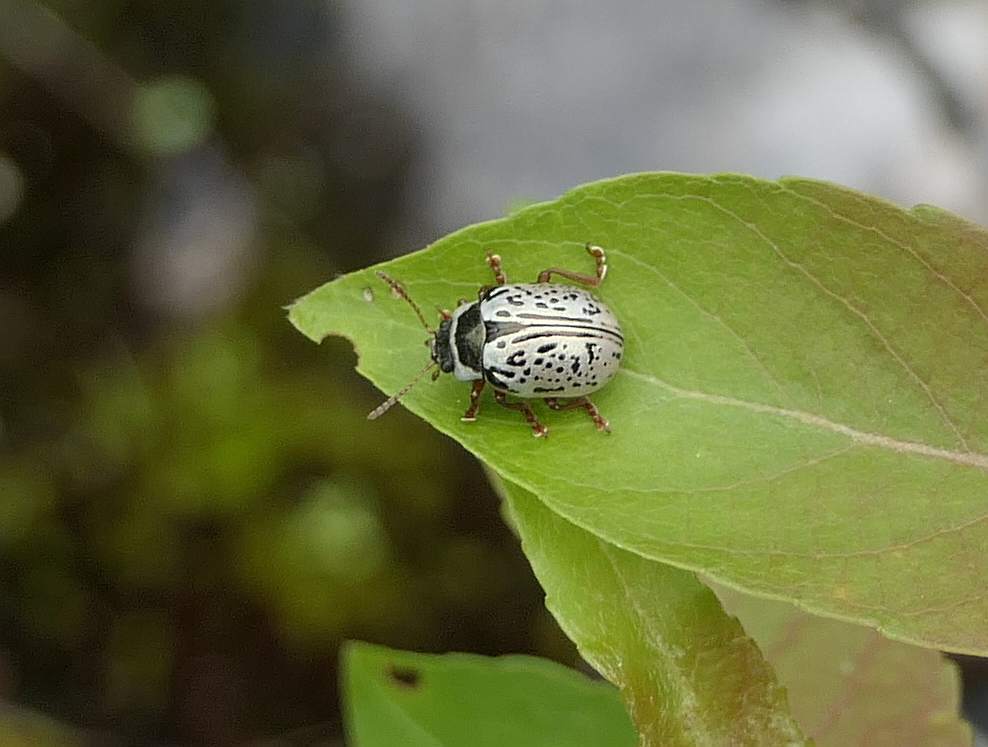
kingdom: Animalia
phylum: Arthropoda
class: Insecta
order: Coleoptera
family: Chrysomelidae
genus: Calligrapha
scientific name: Calligrapha multipunctata
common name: Common willow calligrapher beetle
